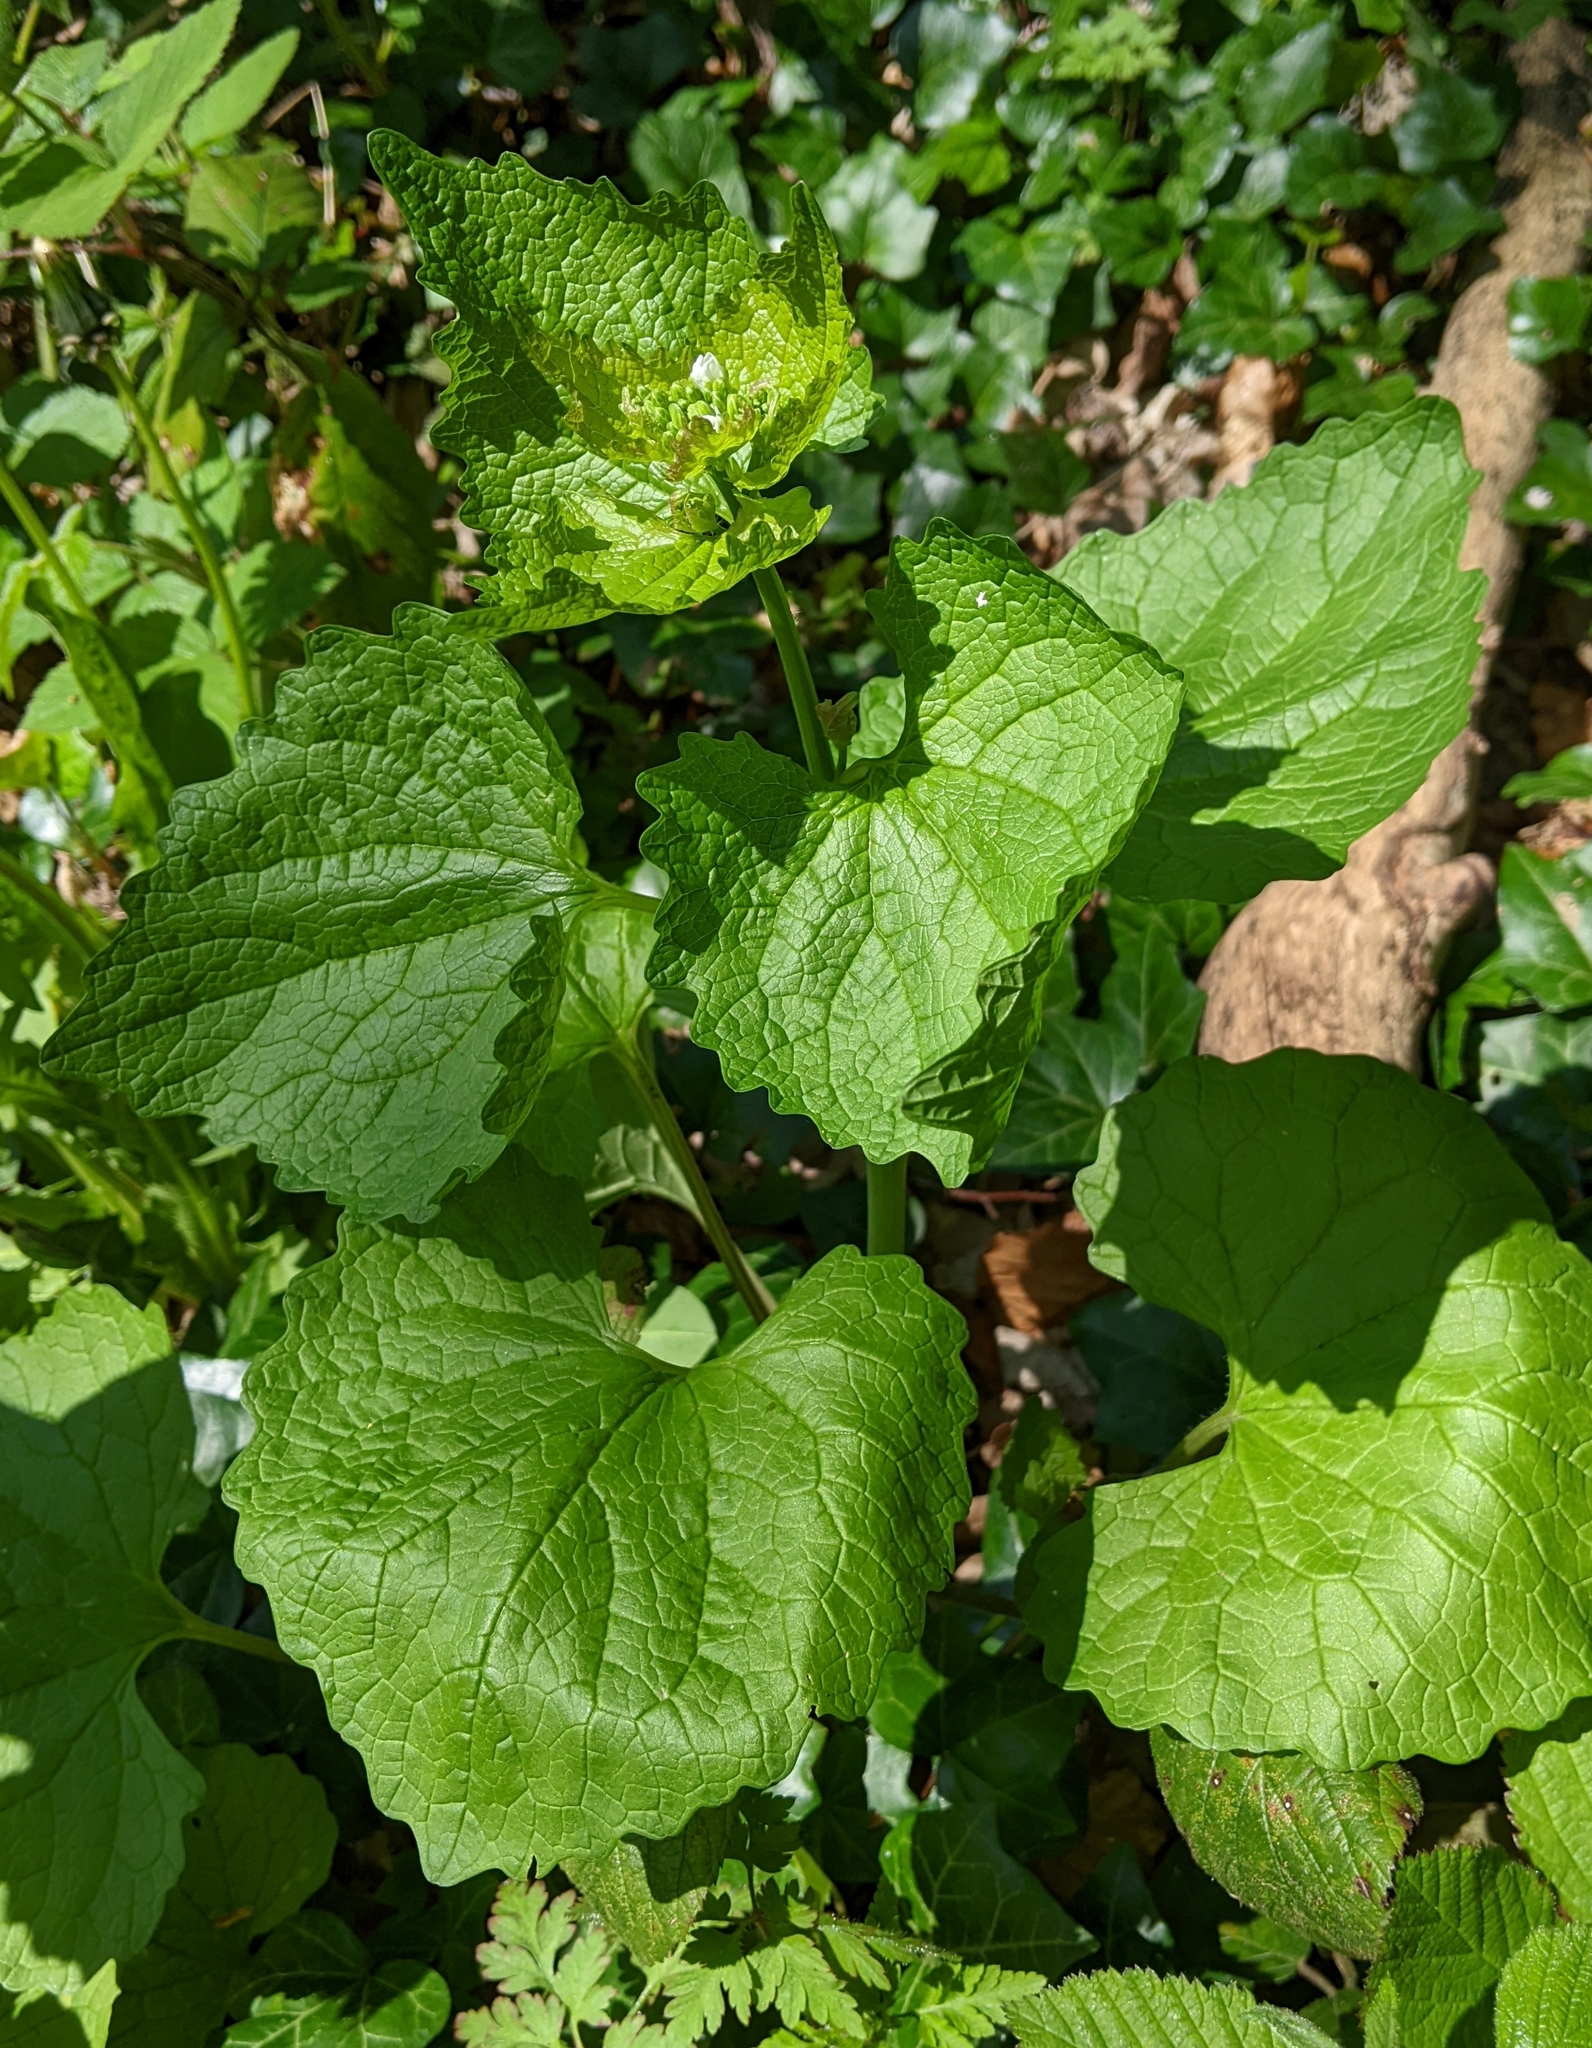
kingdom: Plantae
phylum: Tracheophyta
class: Magnoliopsida
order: Brassicales
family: Brassicaceae
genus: Alliaria
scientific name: Alliaria petiolata
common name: Garlic mustard
